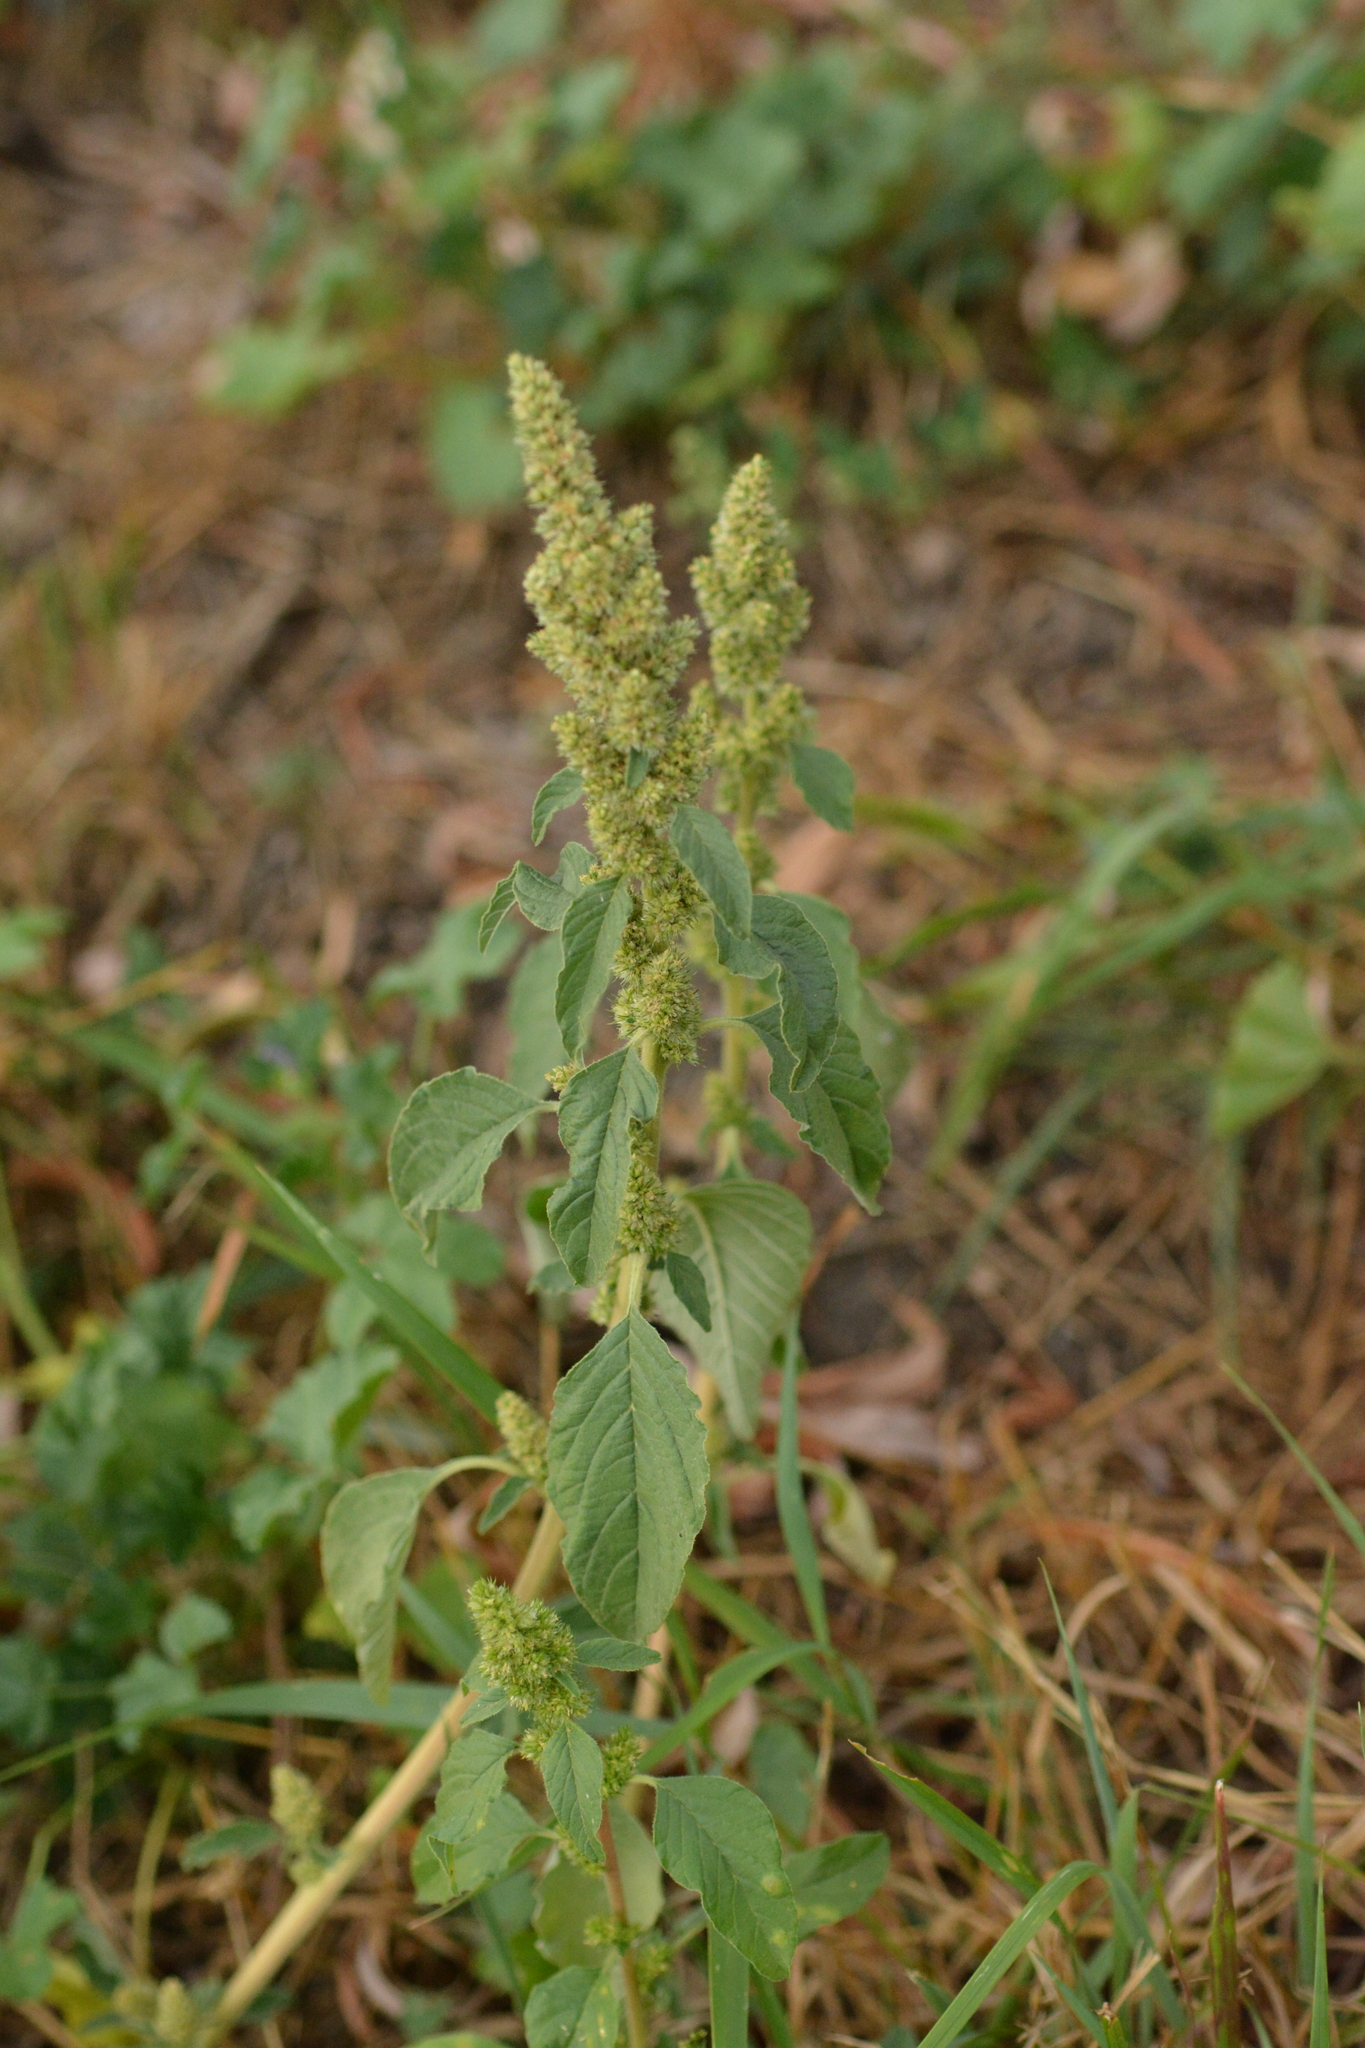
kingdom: Plantae
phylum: Tracheophyta
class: Magnoliopsida
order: Caryophyllales
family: Amaranthaceae
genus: Amaranthus
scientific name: Amaranthus retroflexus
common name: Redroot amaranth
